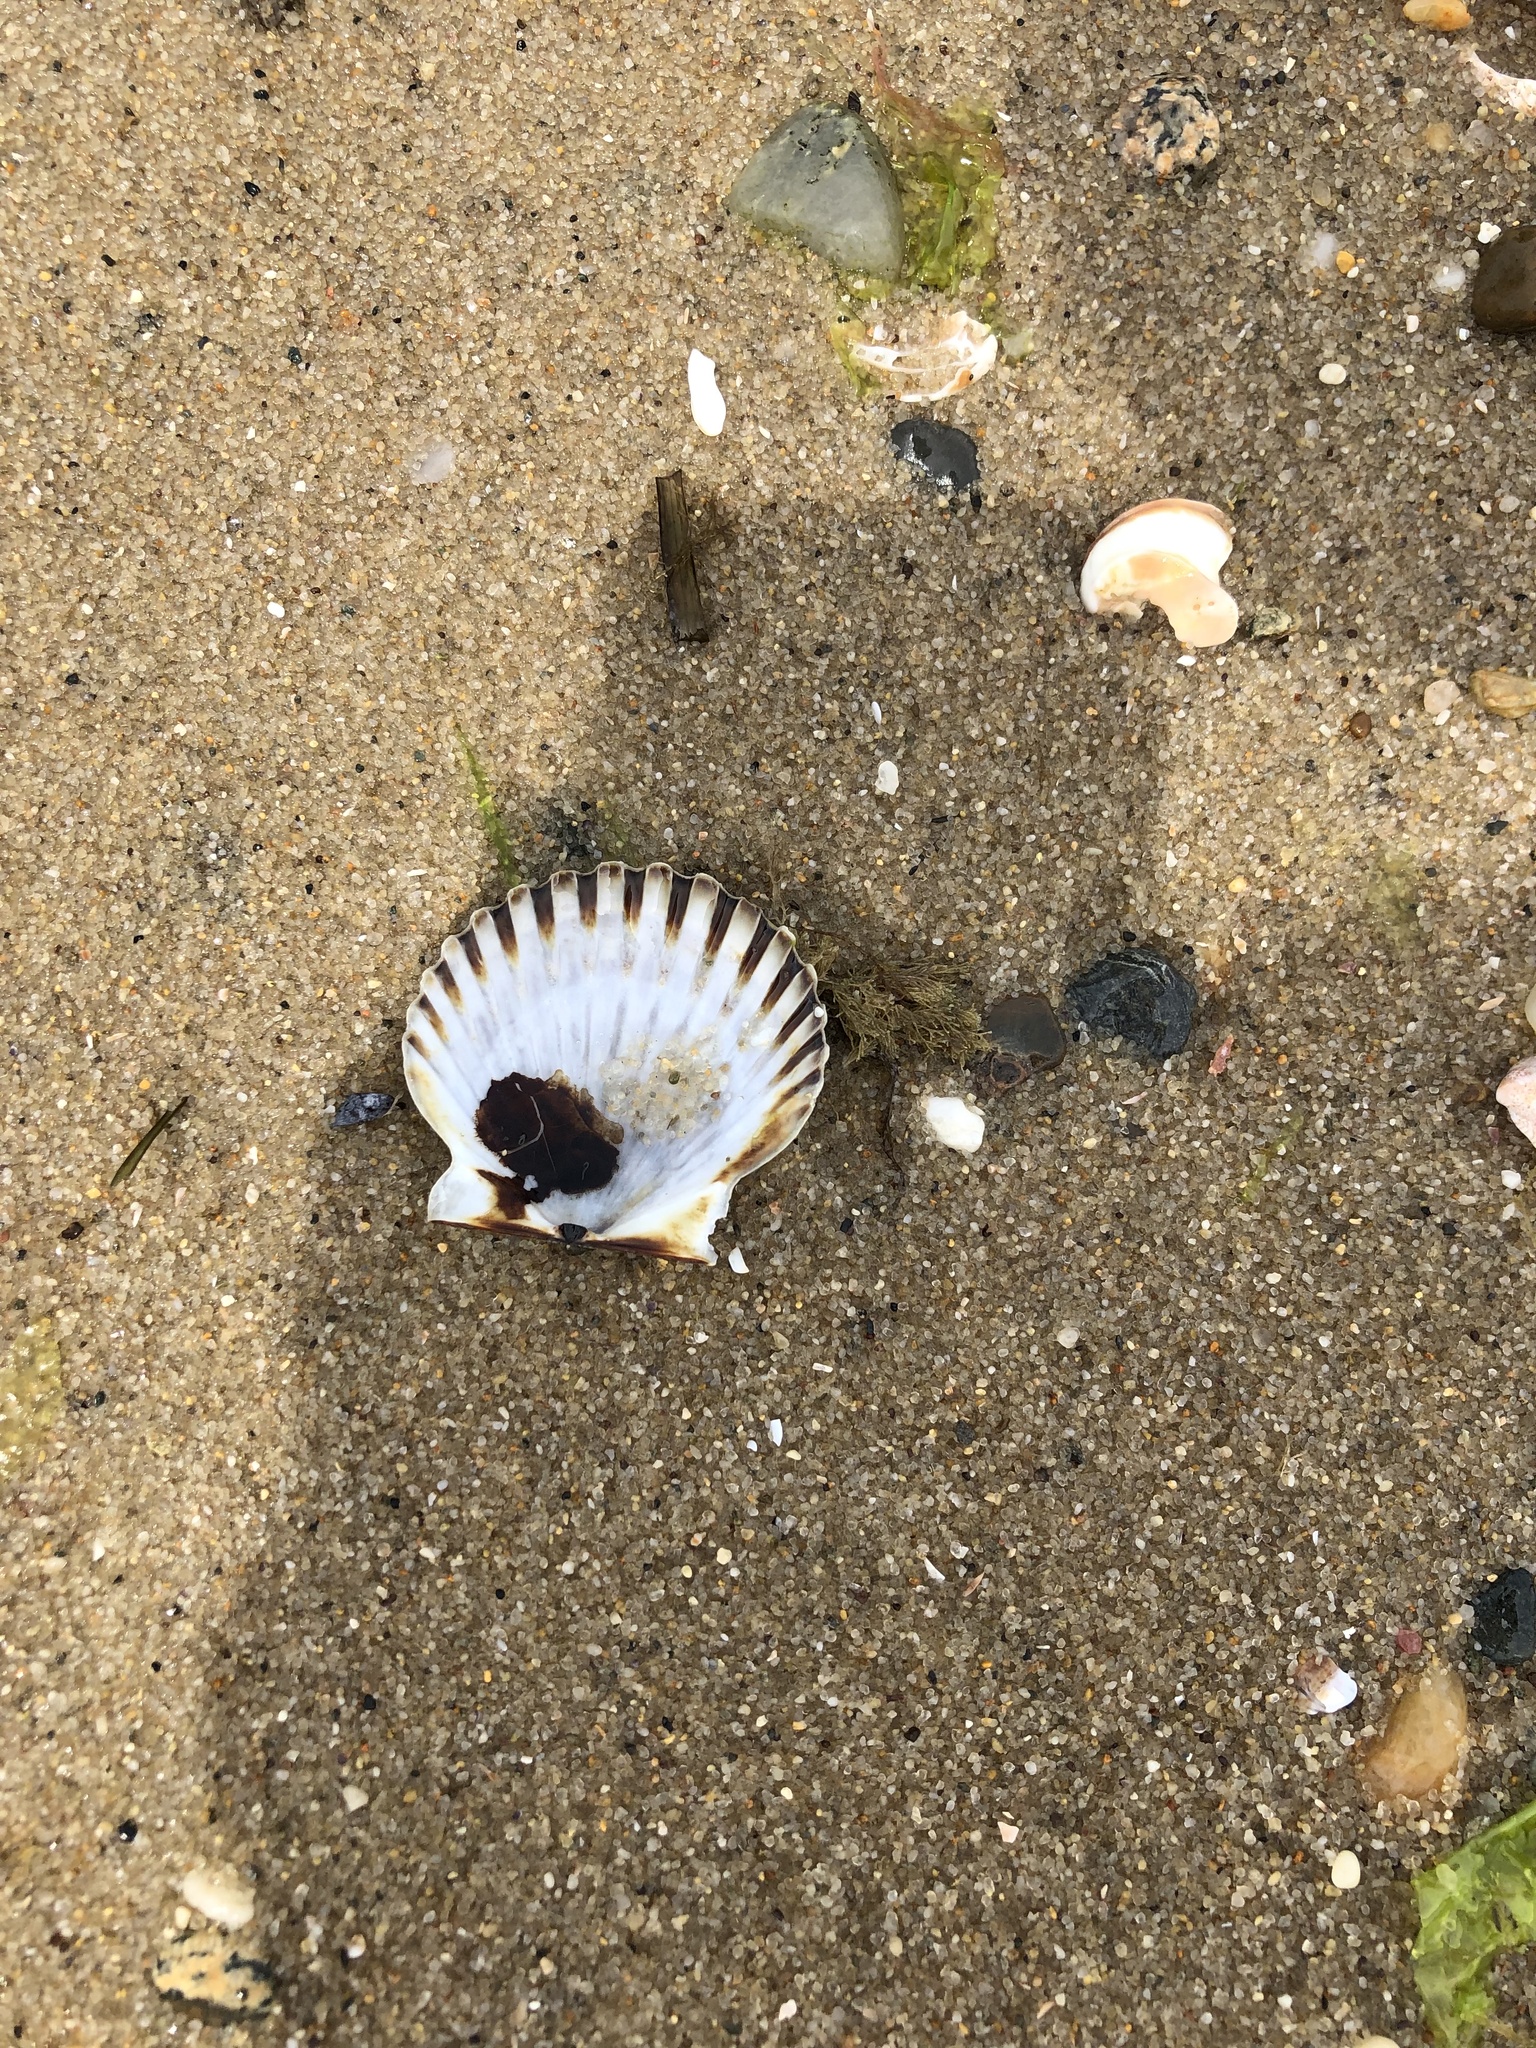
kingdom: Animalia
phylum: Mollusca
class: Bivalvia
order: Pectinida
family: Pectinidae
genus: Argopecten
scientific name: Argopecten irradians
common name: Atlantic bay scallop
